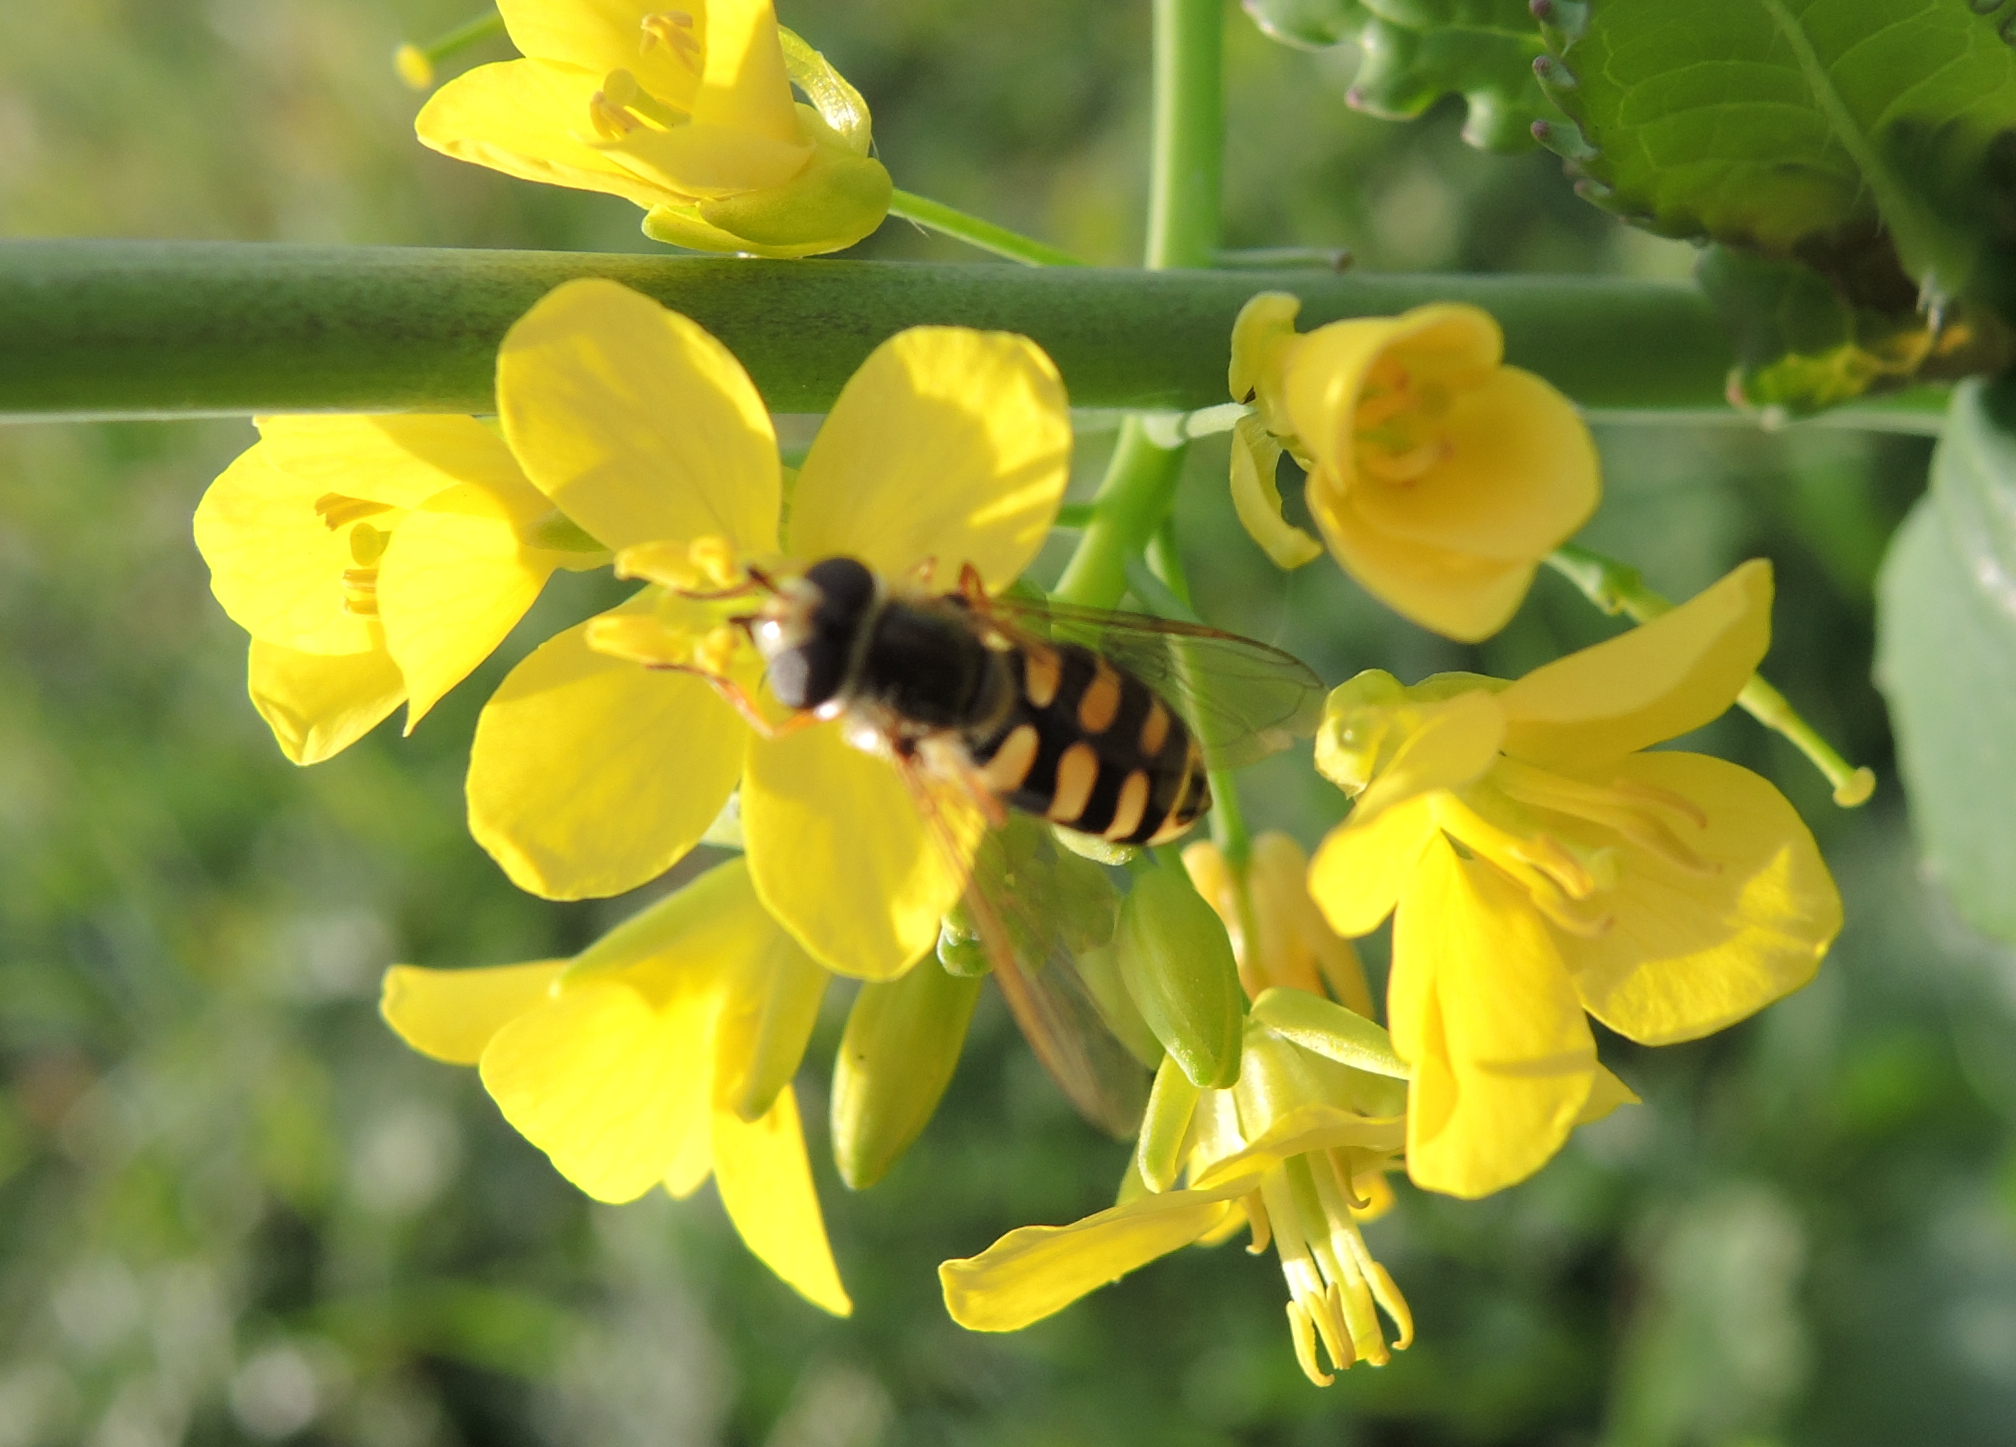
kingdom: Animalia
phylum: Arthropoda
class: Insecta
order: Diptera
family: Syrphidae
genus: Eupeodes
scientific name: Eupeodes corollae
